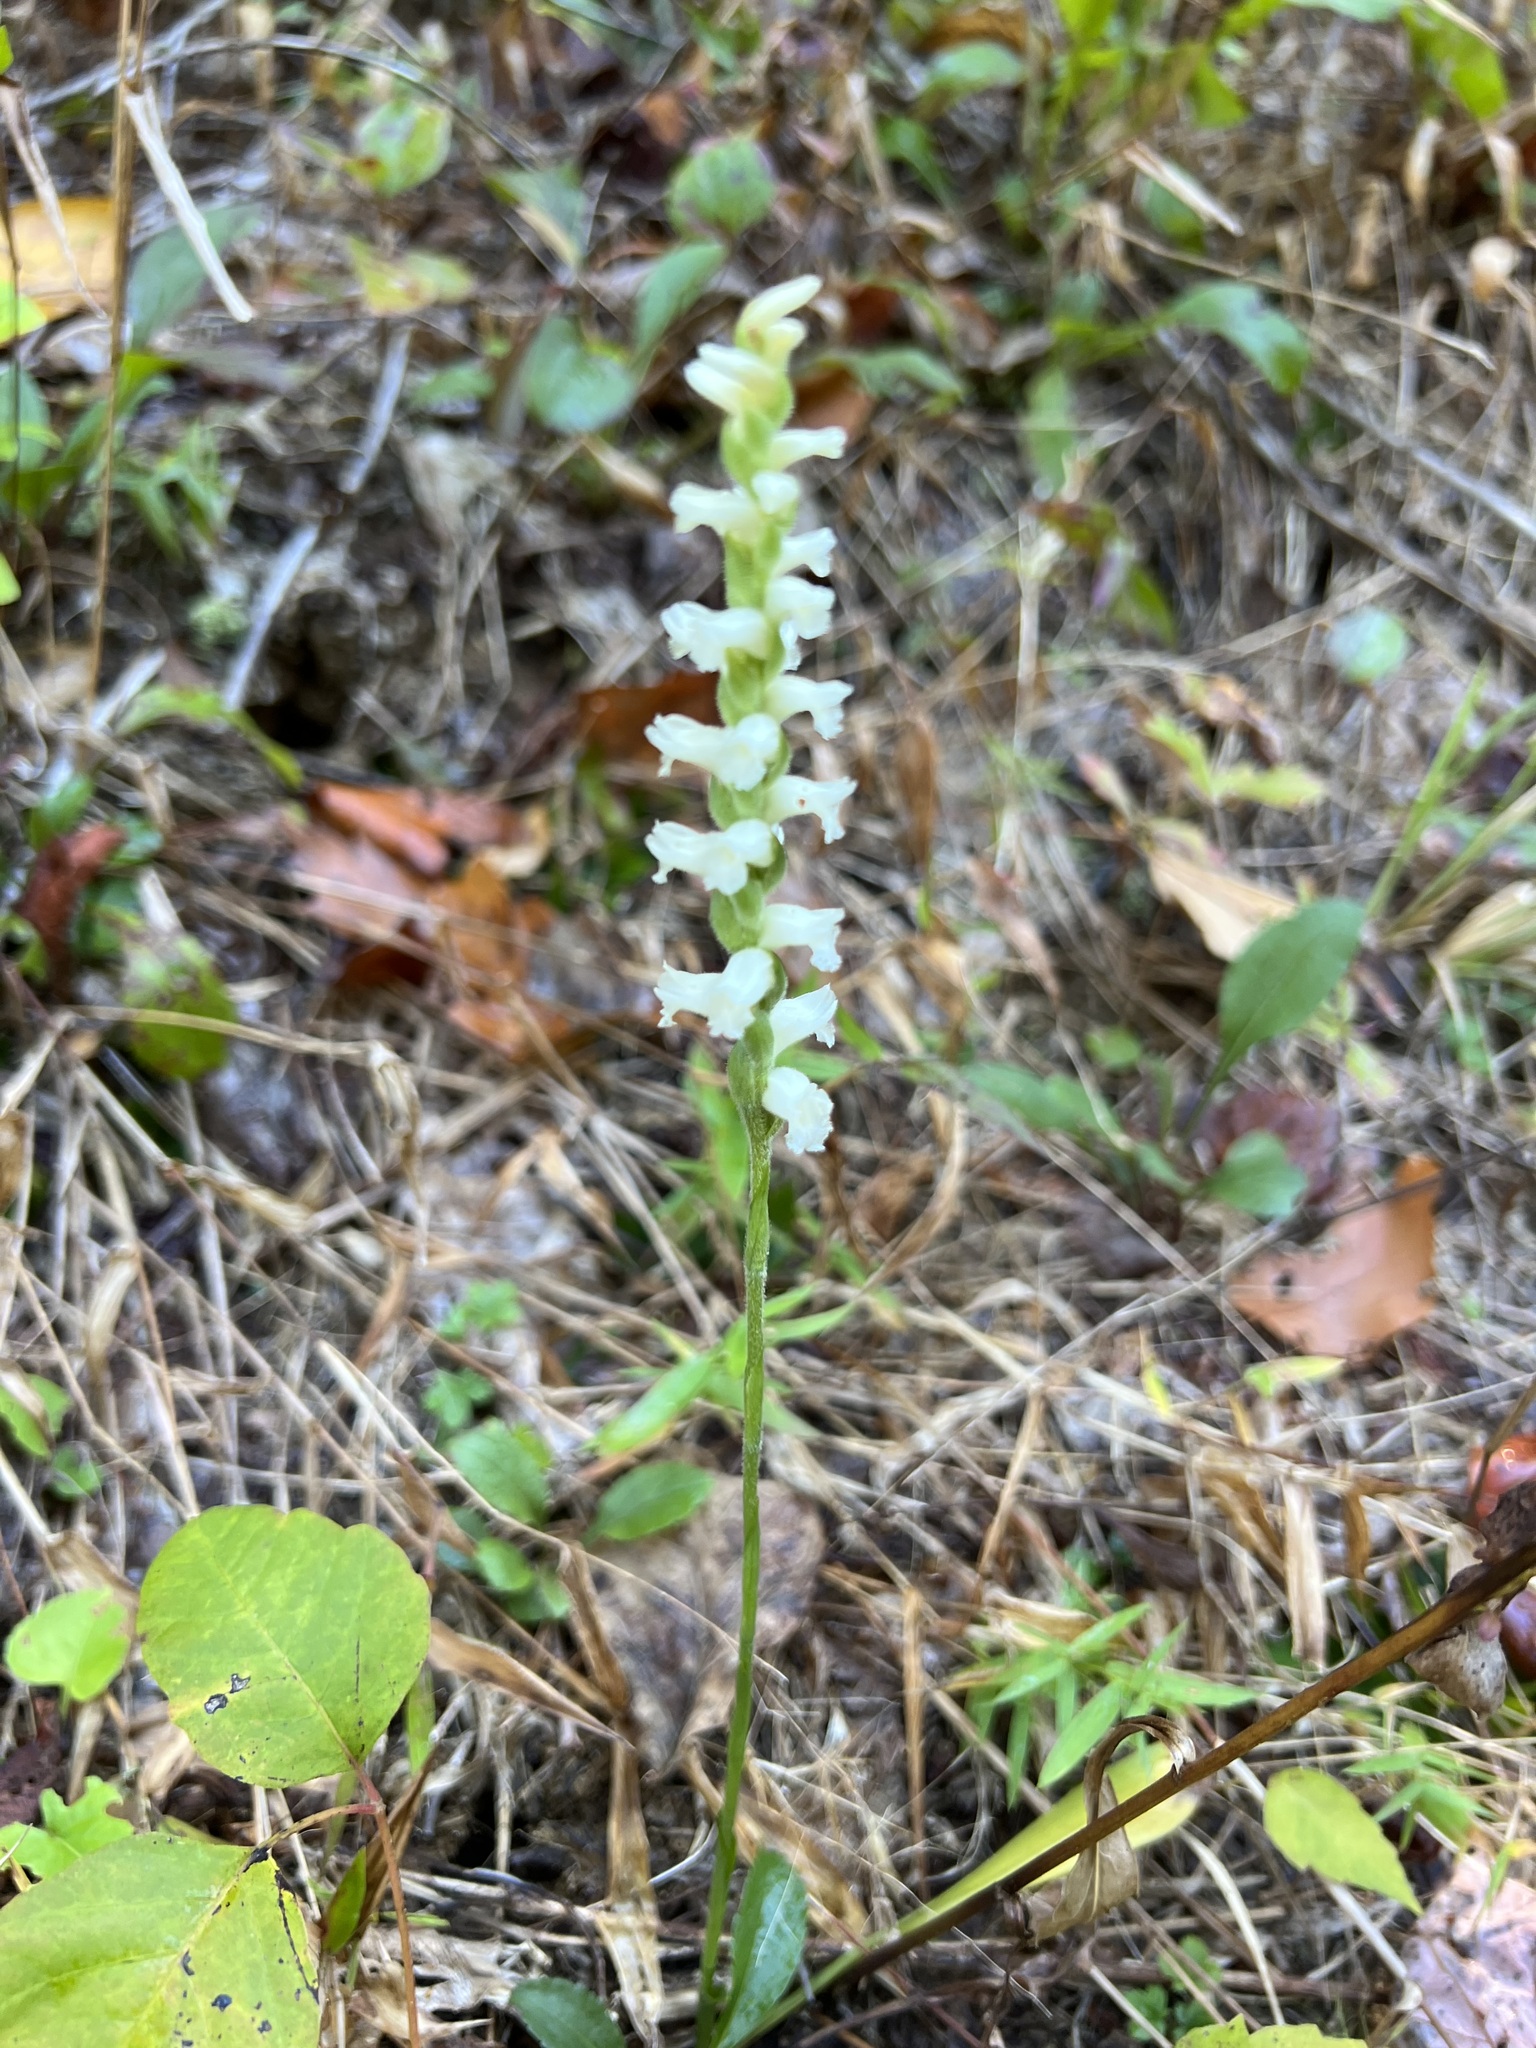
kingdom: Plantae
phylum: Tracheophyta
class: Liliopsida
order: Asparagales
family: Orchidaceae
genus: Spiranthes
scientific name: Spiranthes cernua
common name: Dropping ladies'-tresses
